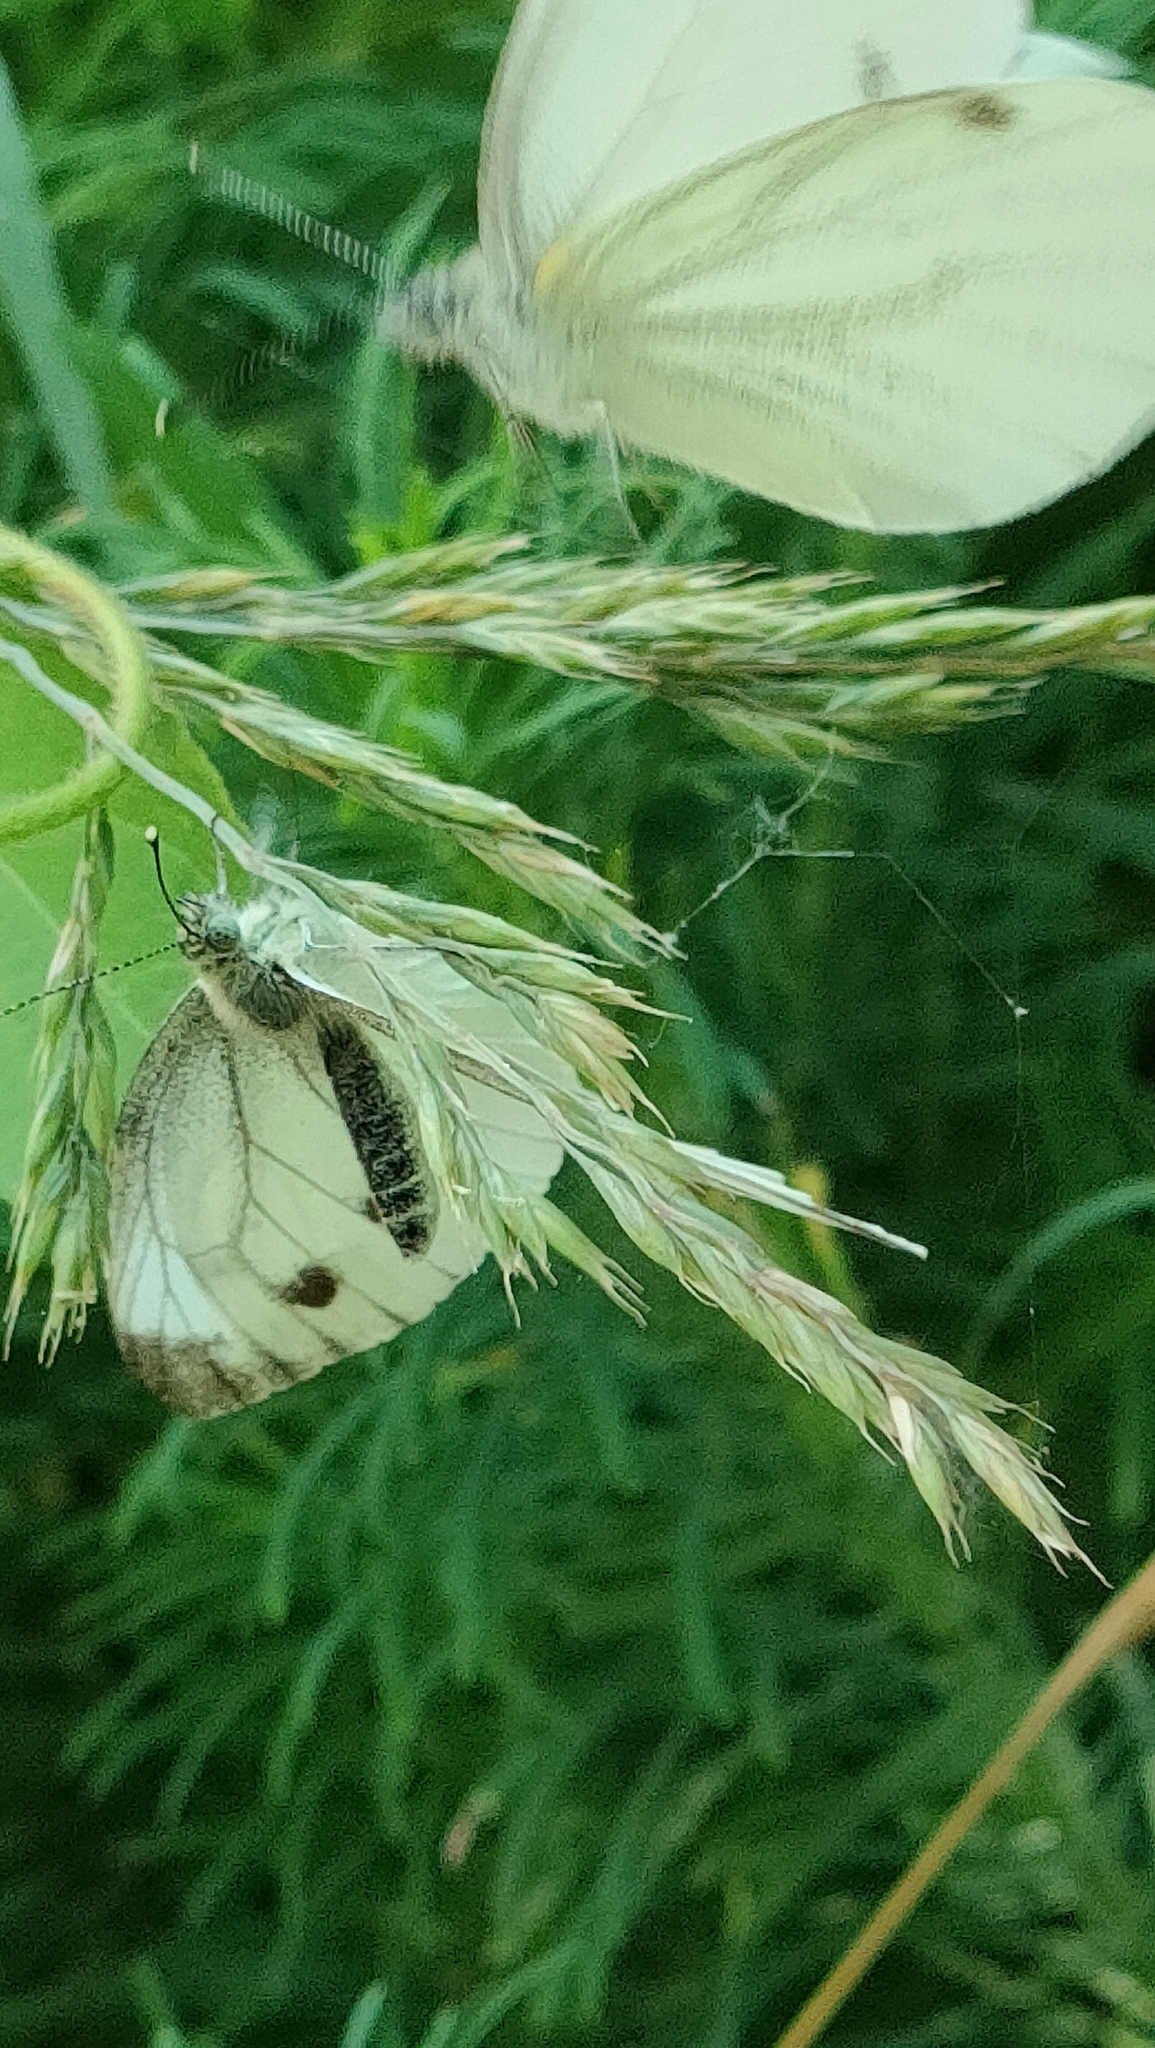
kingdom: Animalia
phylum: Arthropoda
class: Insecta
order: Lepidoptera
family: Pieridae
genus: Pieris
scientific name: Pieris napi
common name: Green-veined white
